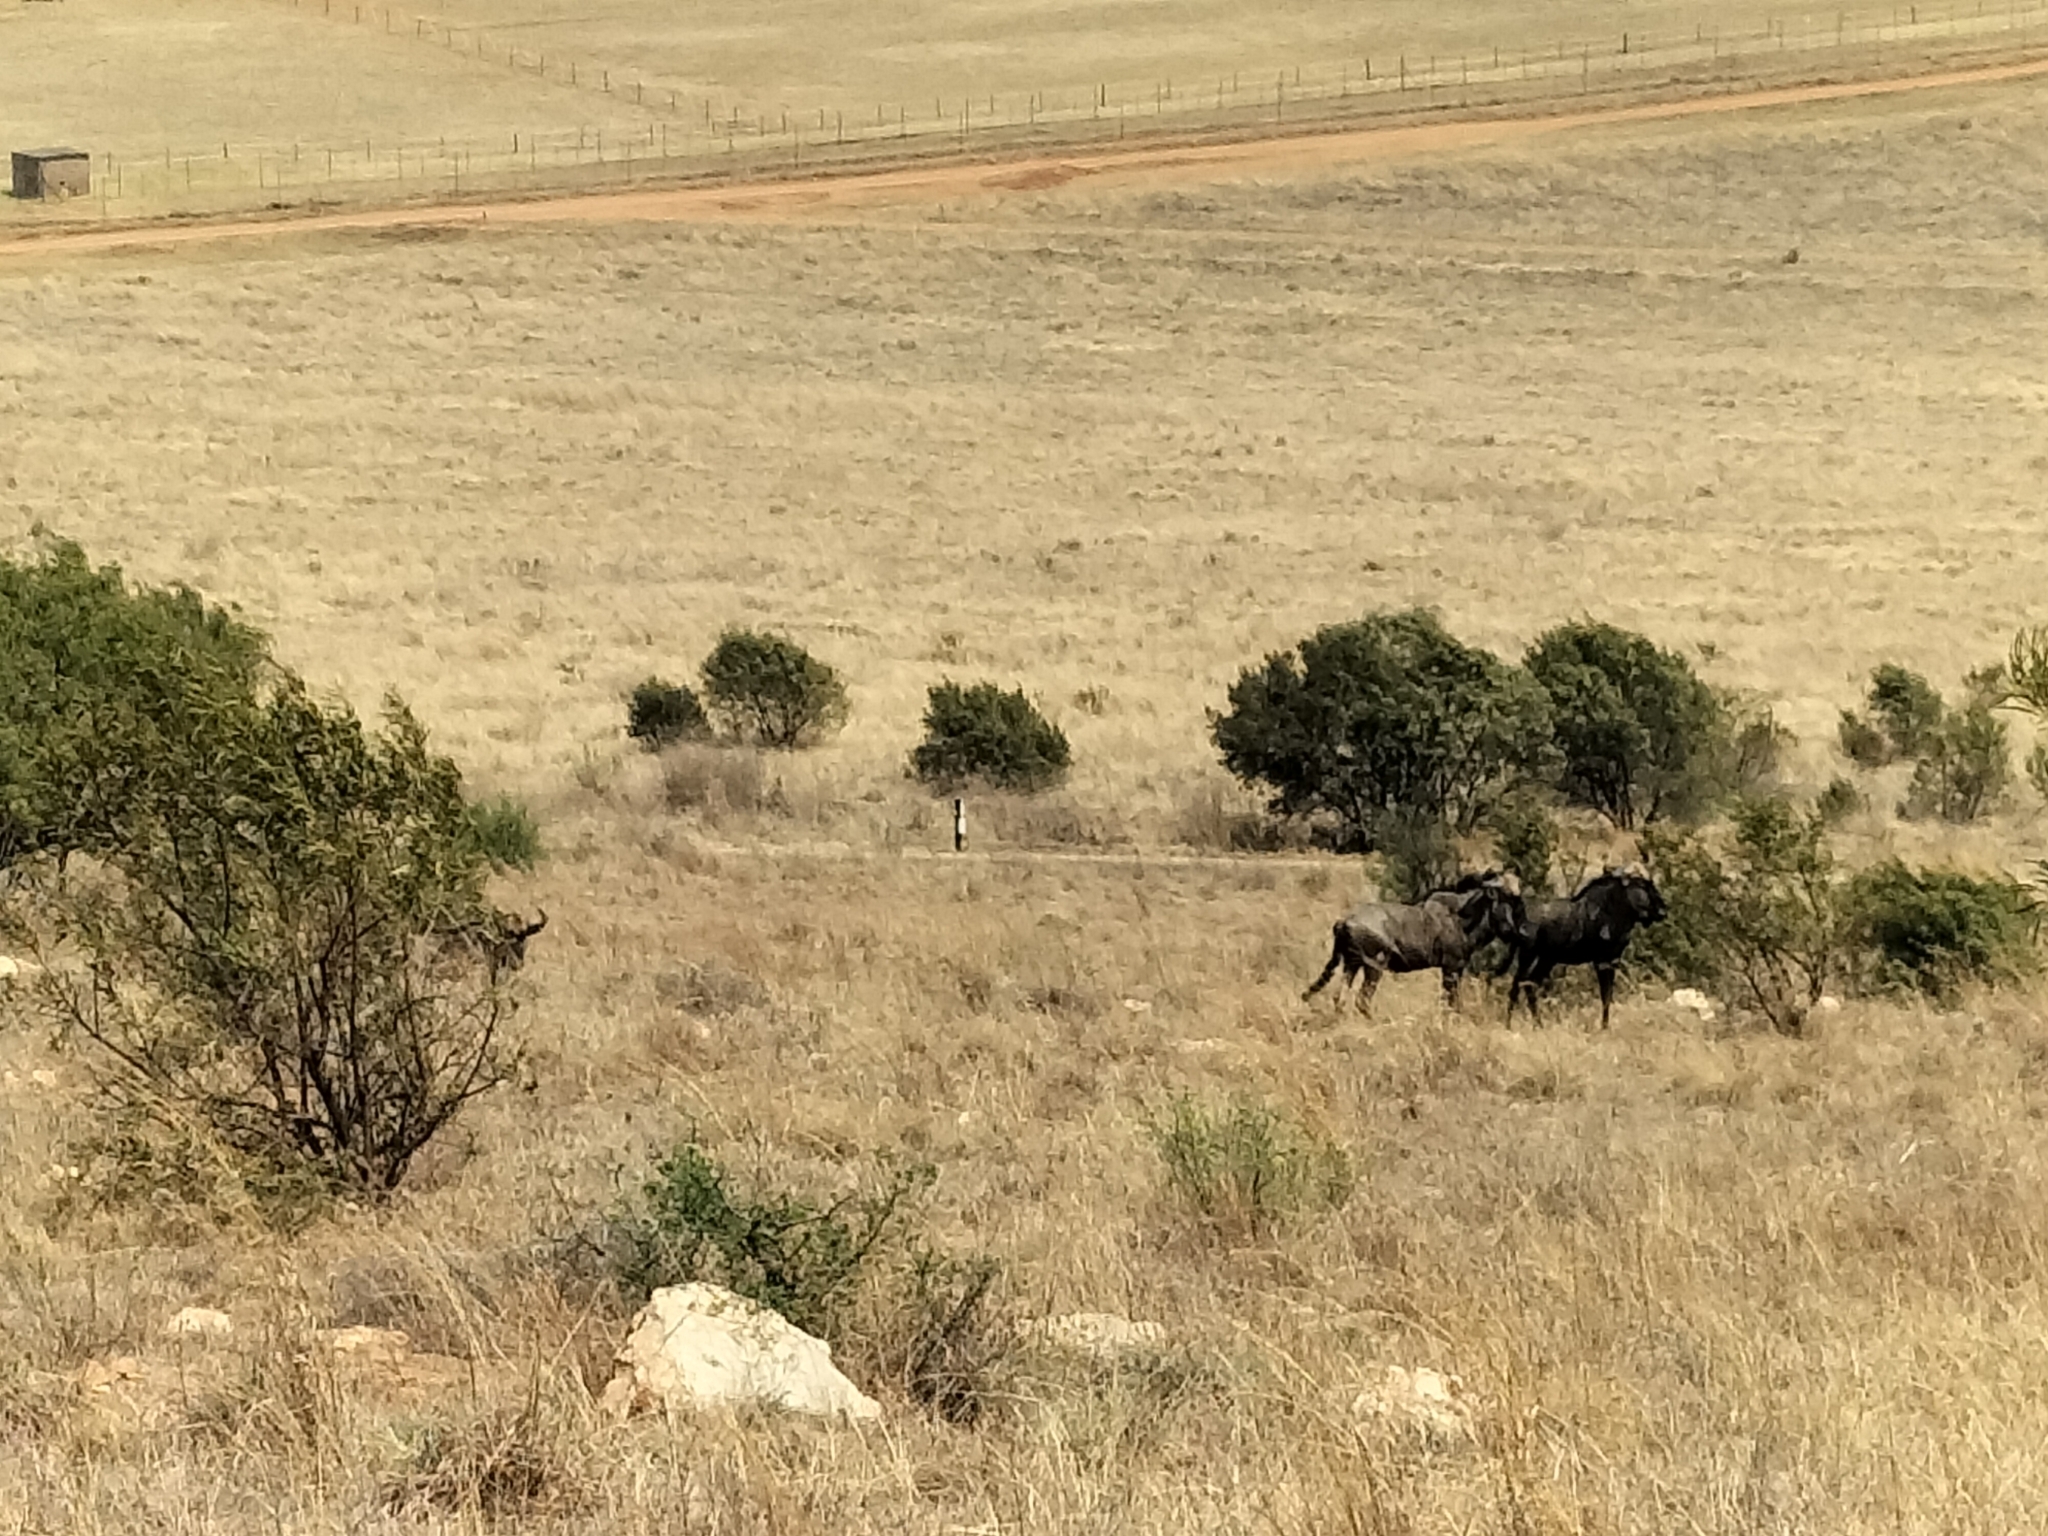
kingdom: Animalia
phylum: Chordata
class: Mammalia
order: Artiodactyla
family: Bovidae
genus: Connochaetes
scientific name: Connochaetes taurinus
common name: Blue wildebeest
